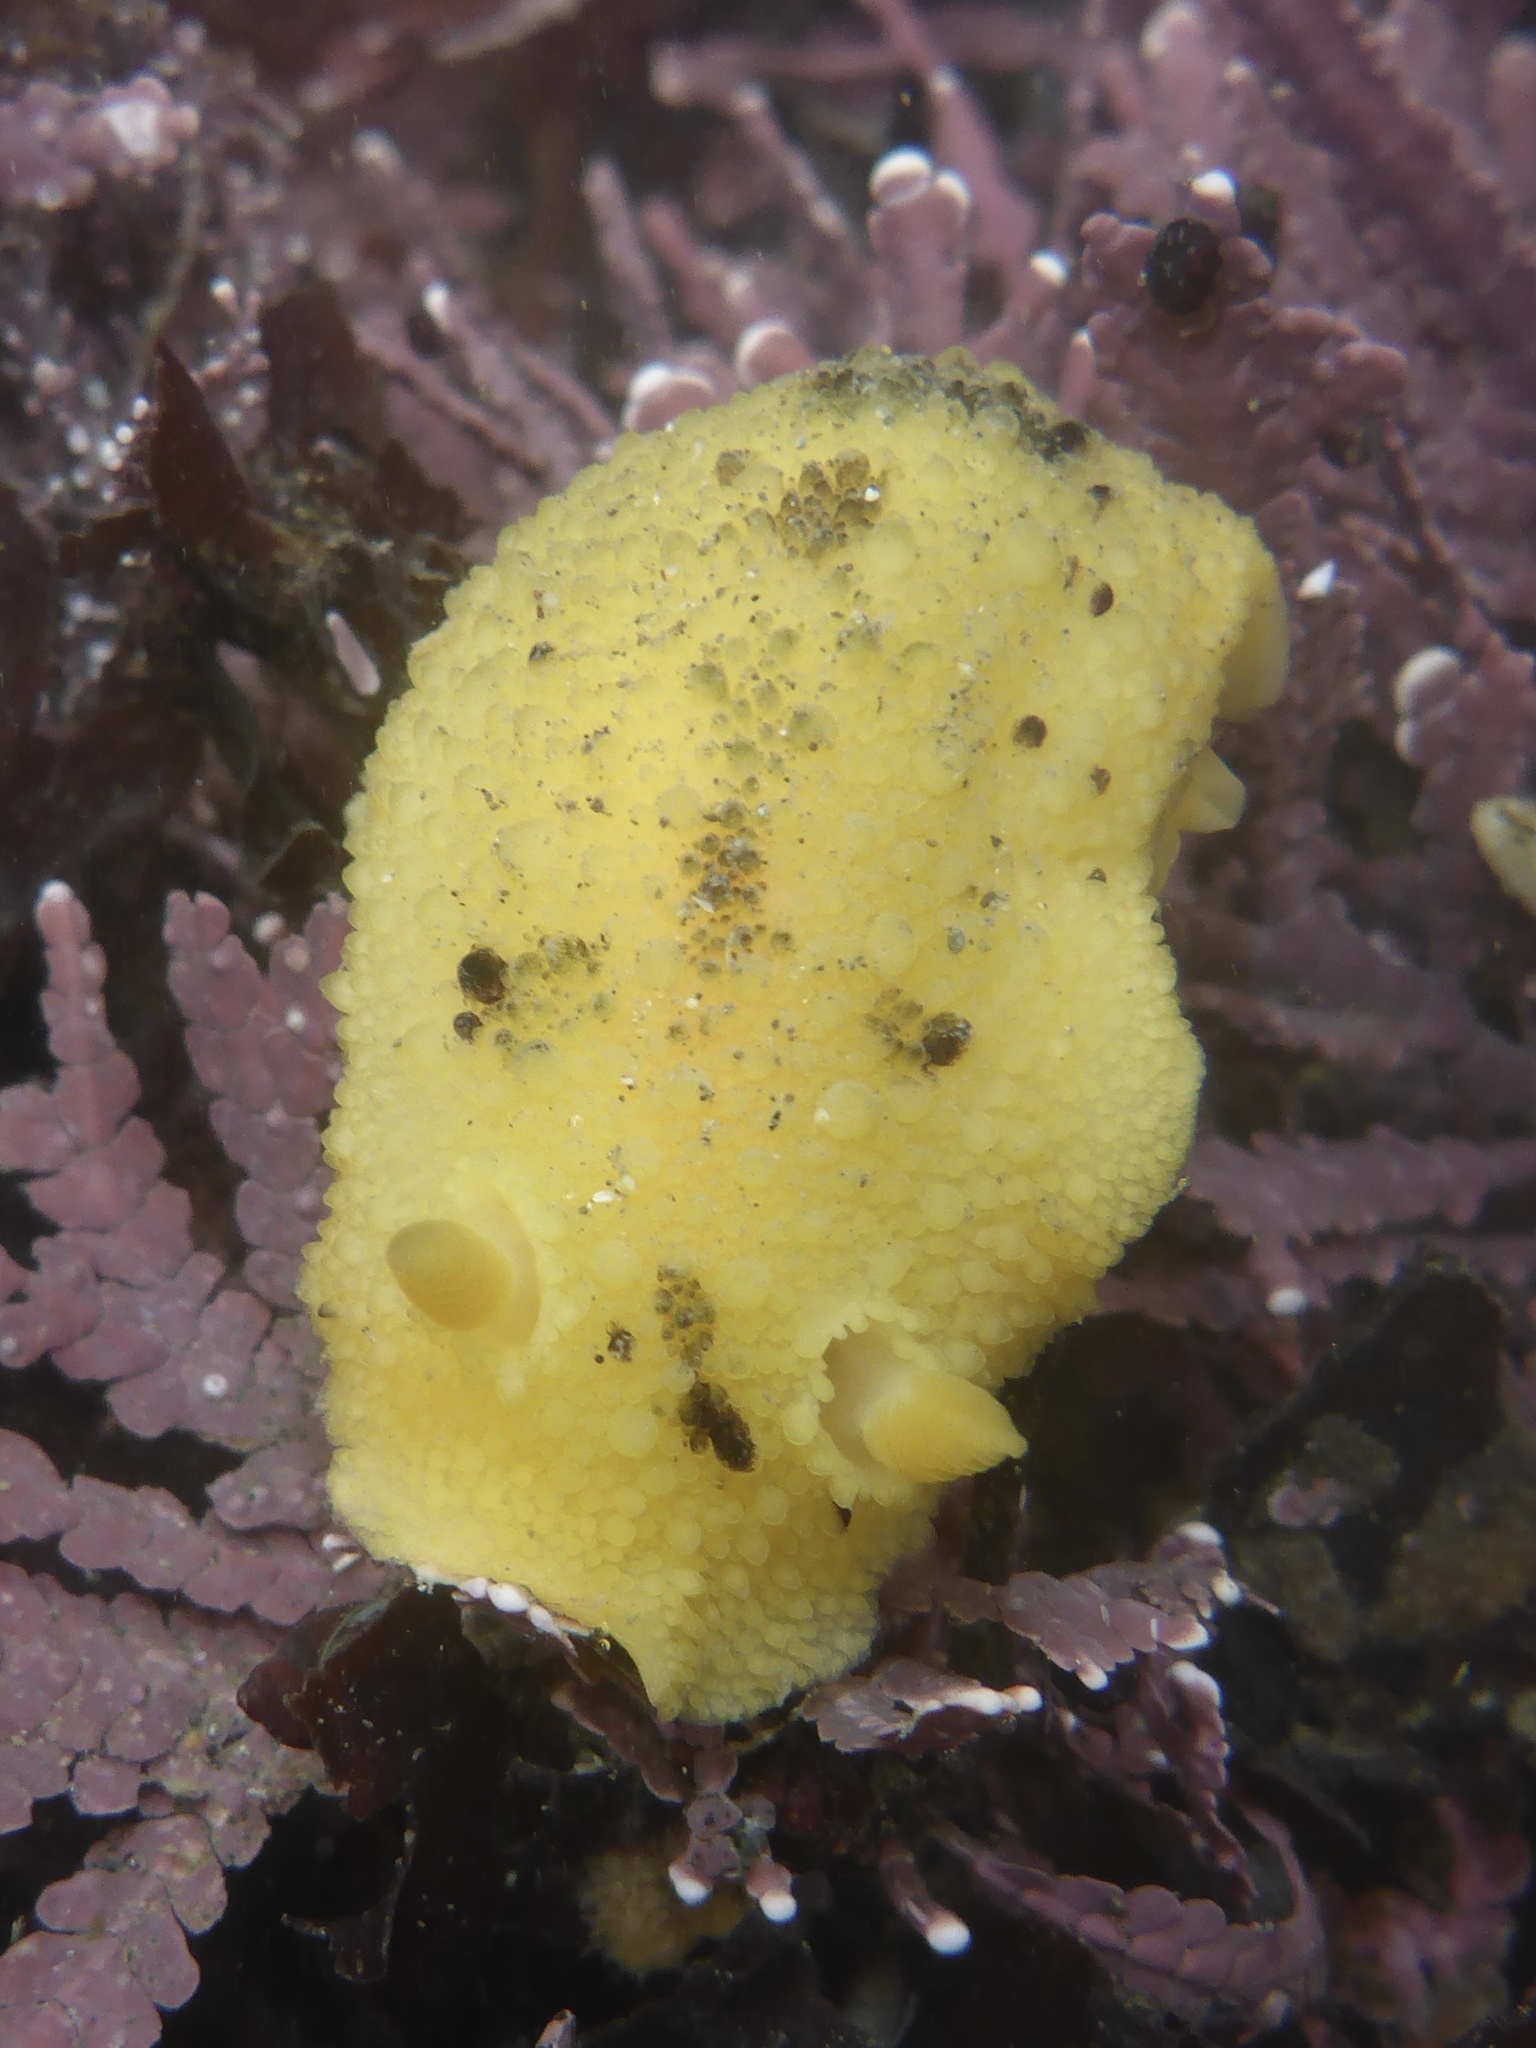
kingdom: Animalia
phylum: Mollusca
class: Gastropoda
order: Nudibranchia
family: Dorididae
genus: Doris
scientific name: Doris montereyensis
